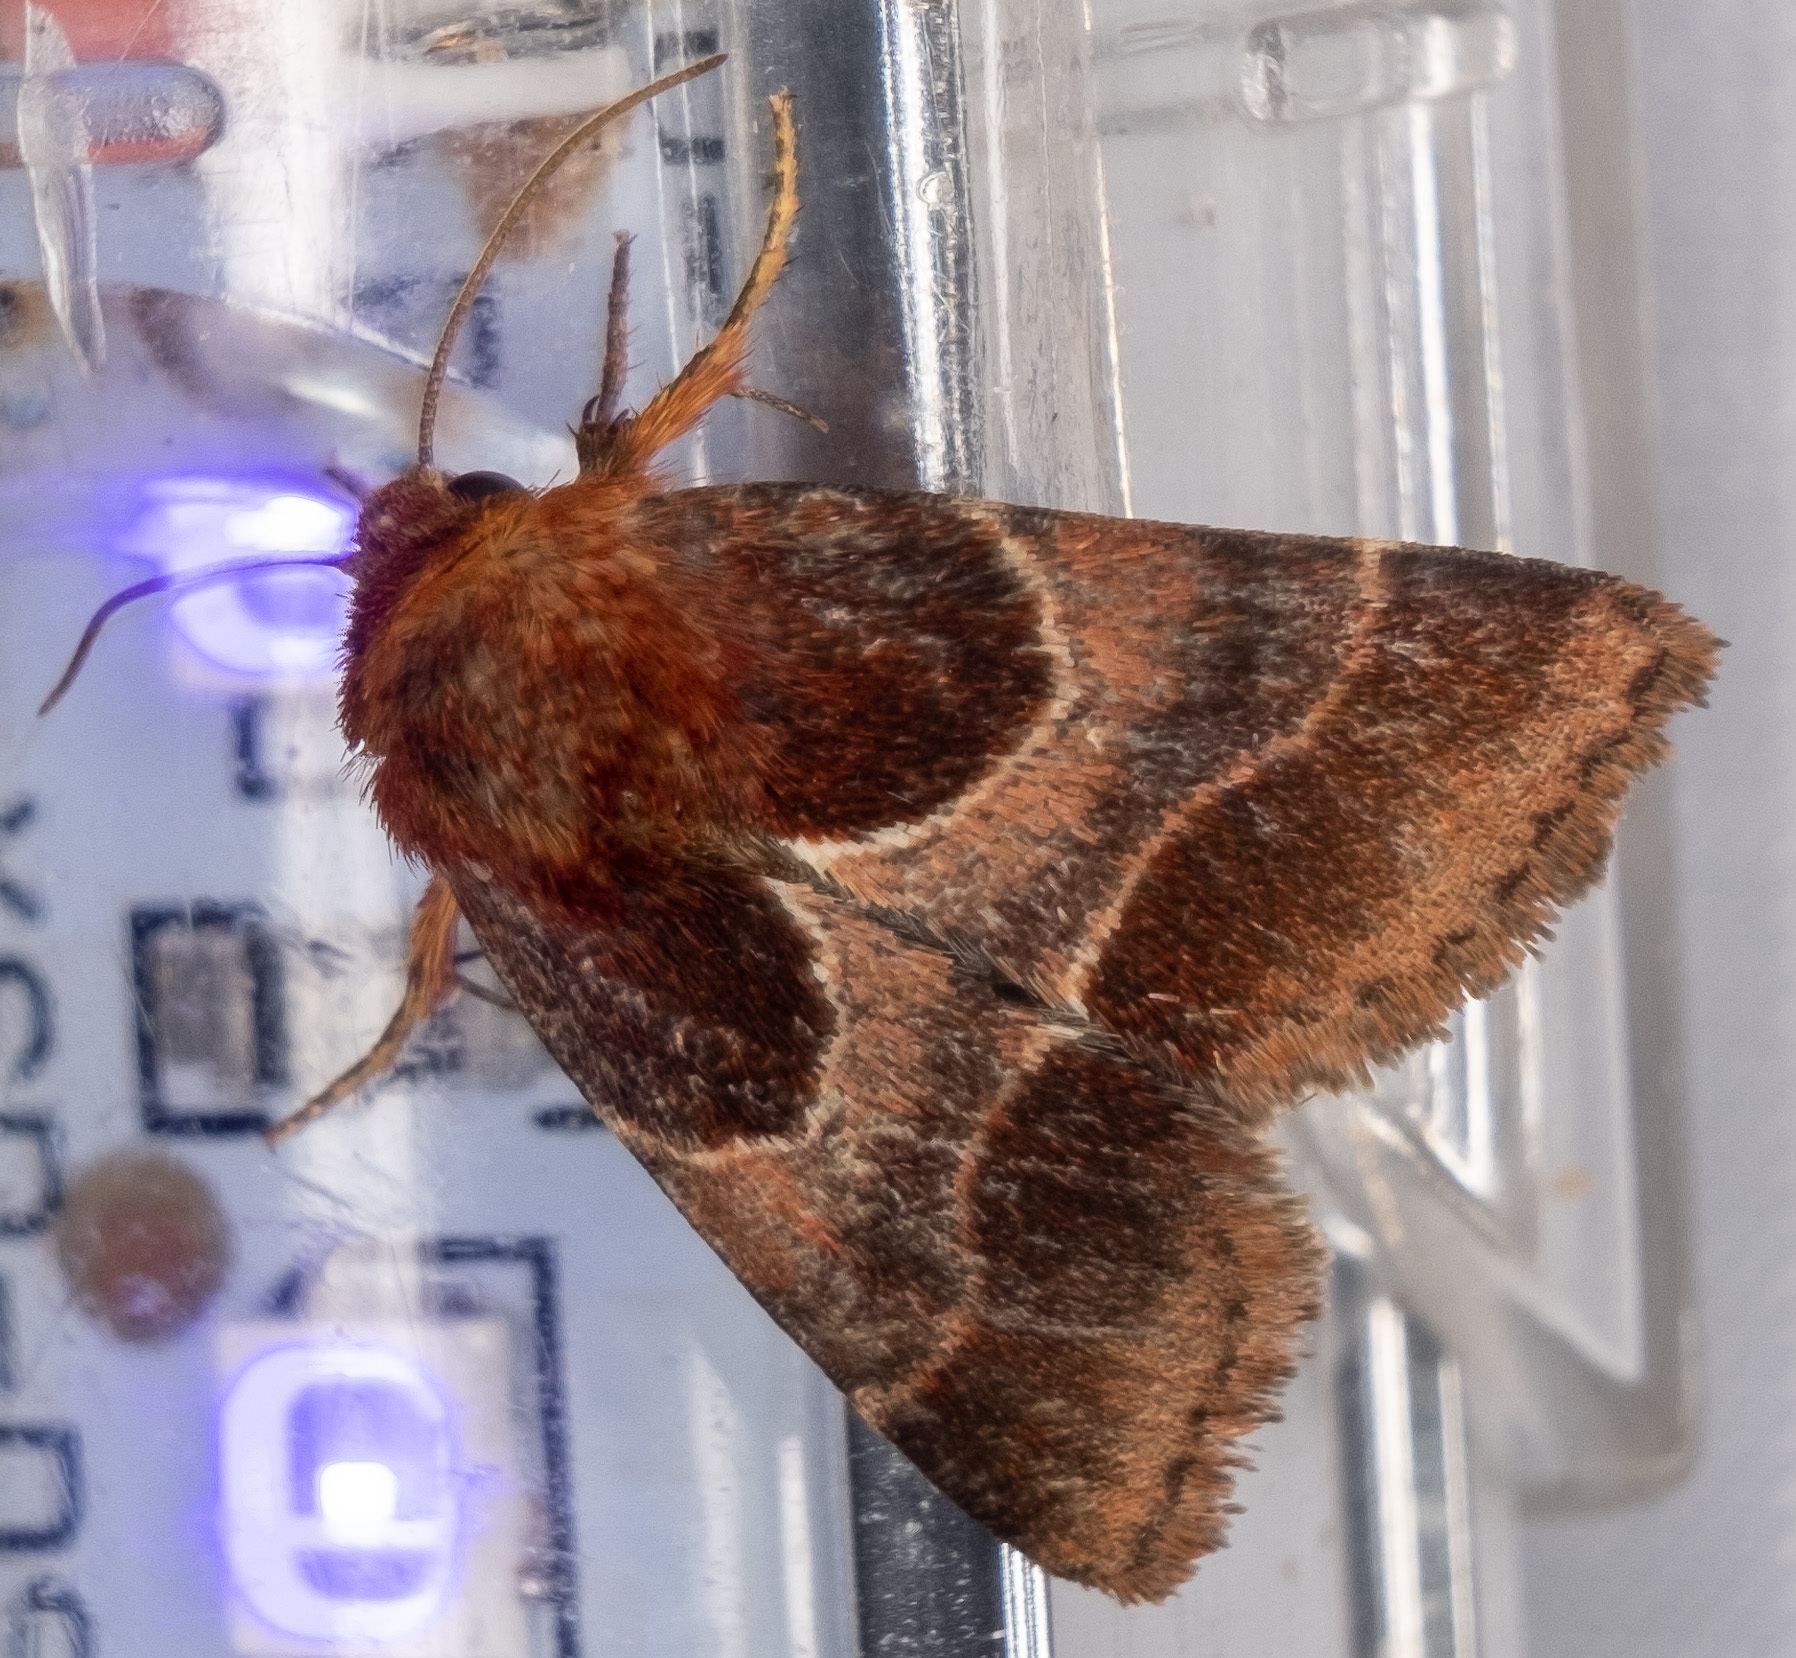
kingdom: Animalia
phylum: Arthropoda
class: Insecta
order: Lepidoptera
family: Noctuidae
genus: Schinia
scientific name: Schinia arcigera
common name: Arcigera flower moth
